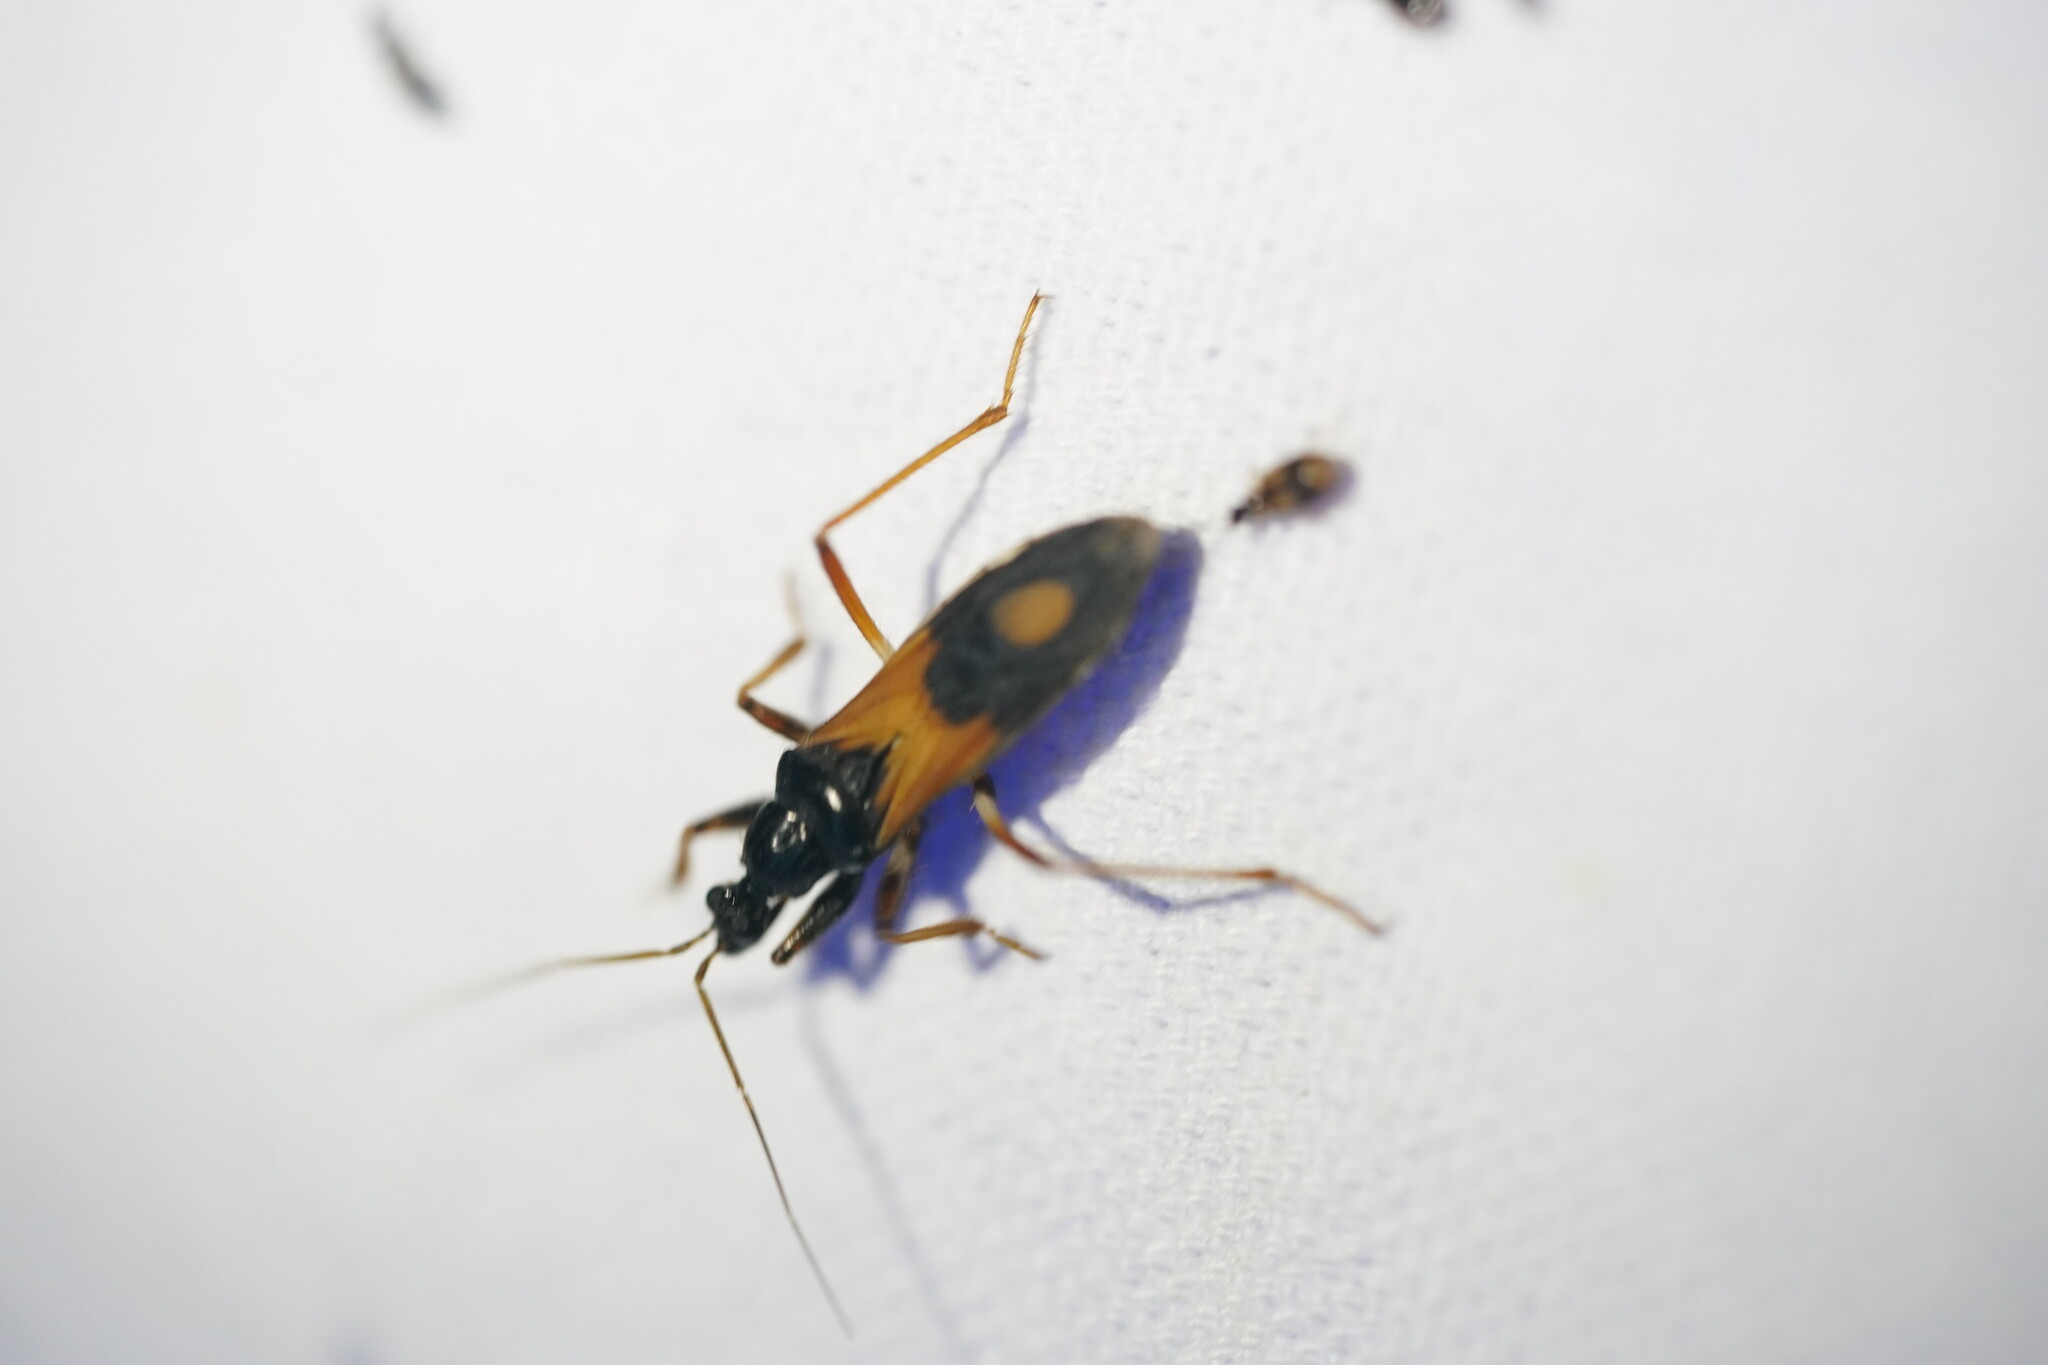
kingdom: Animalia
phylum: Arthropoda
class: Insecta
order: Hemiptera
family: Reduviidae
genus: Rasahus
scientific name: Rasahus biguttatus
